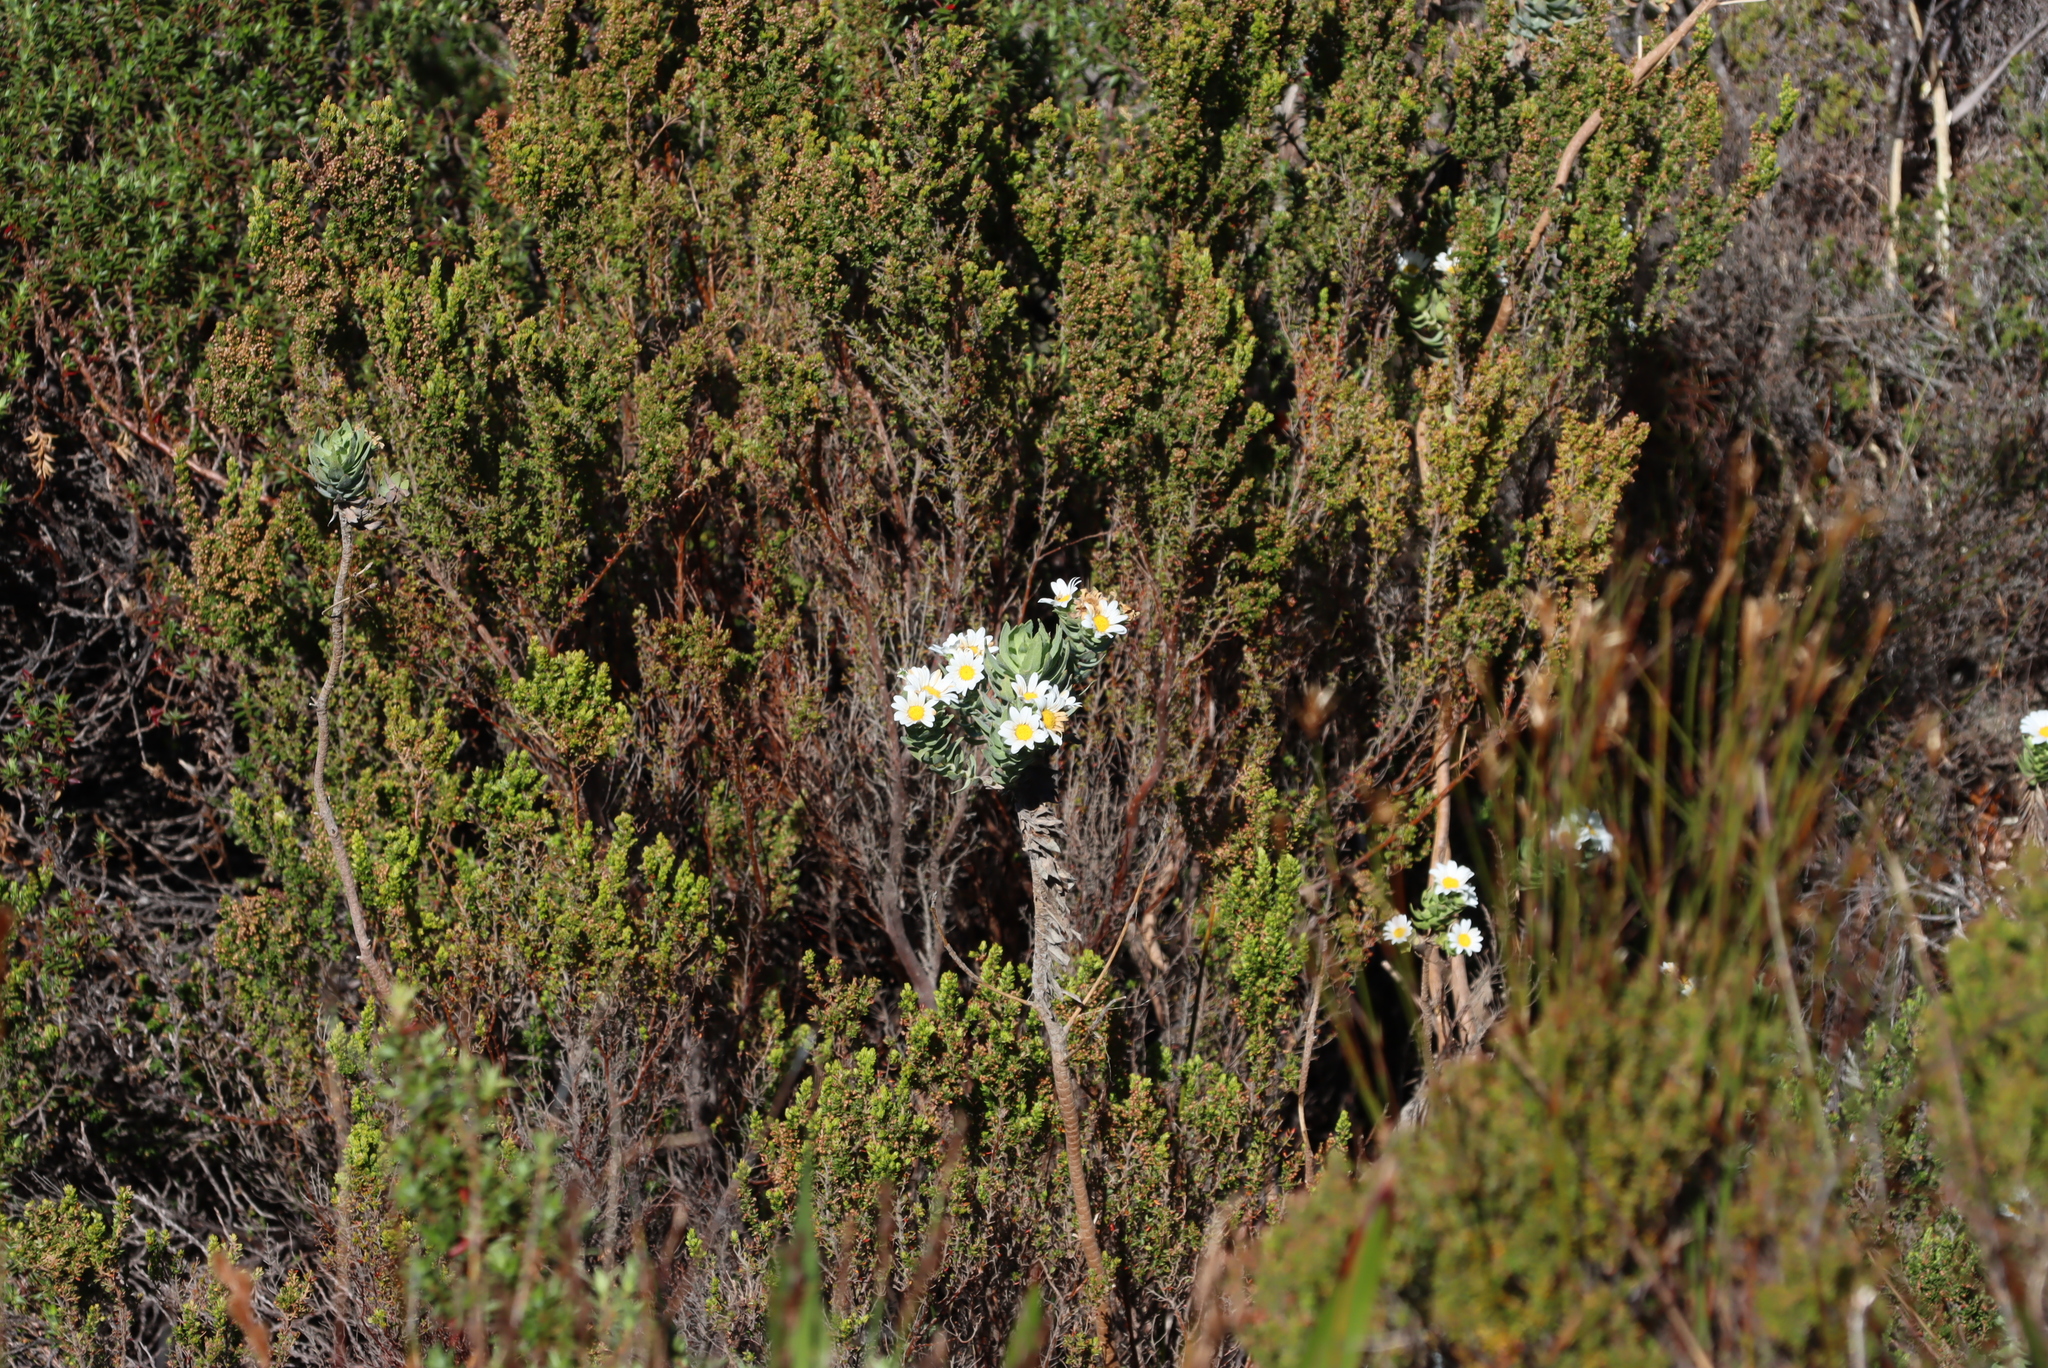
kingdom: Plantae
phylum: Tracheophyta
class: Magnoliopsida
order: Asterales
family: Asteraceae
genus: Osmitopsis
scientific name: Osmitopsis asteriscoides
